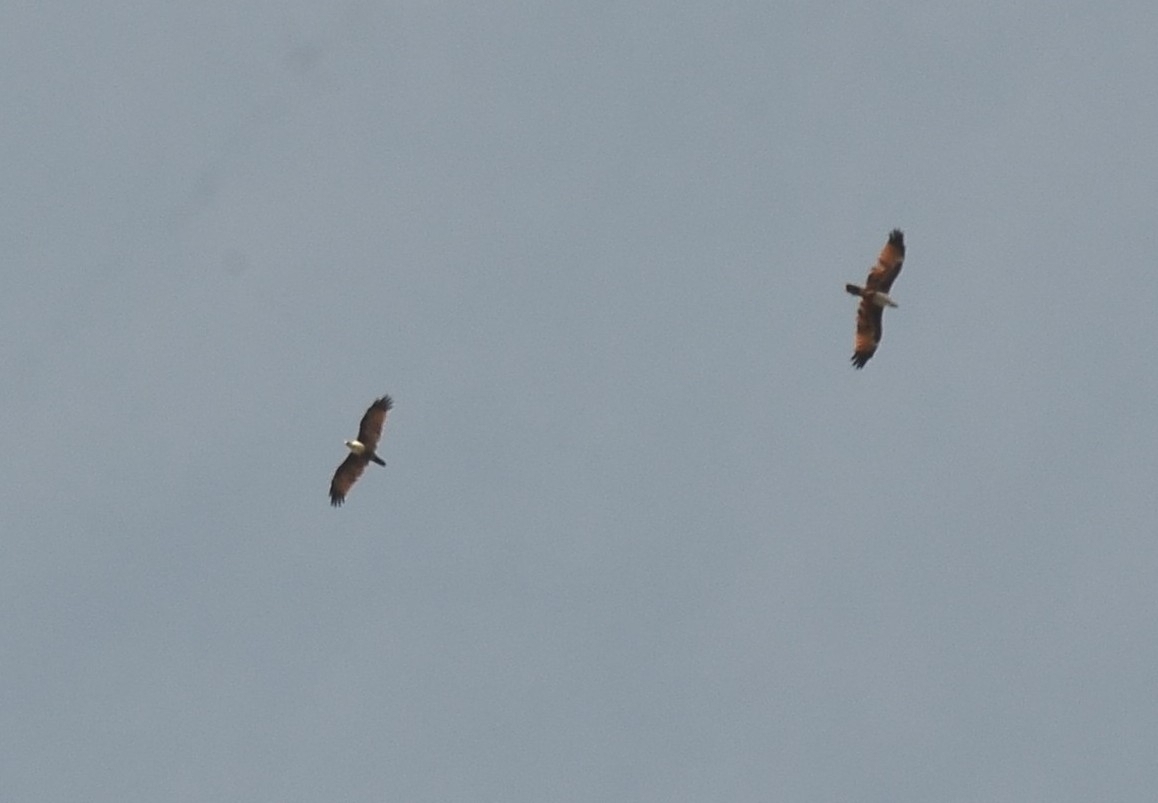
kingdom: Animalia
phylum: Chordata
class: Aves
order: Accipitriformes
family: Accipitridae
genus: Haliastur
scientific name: Haliastur indus
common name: Brahminy kite
